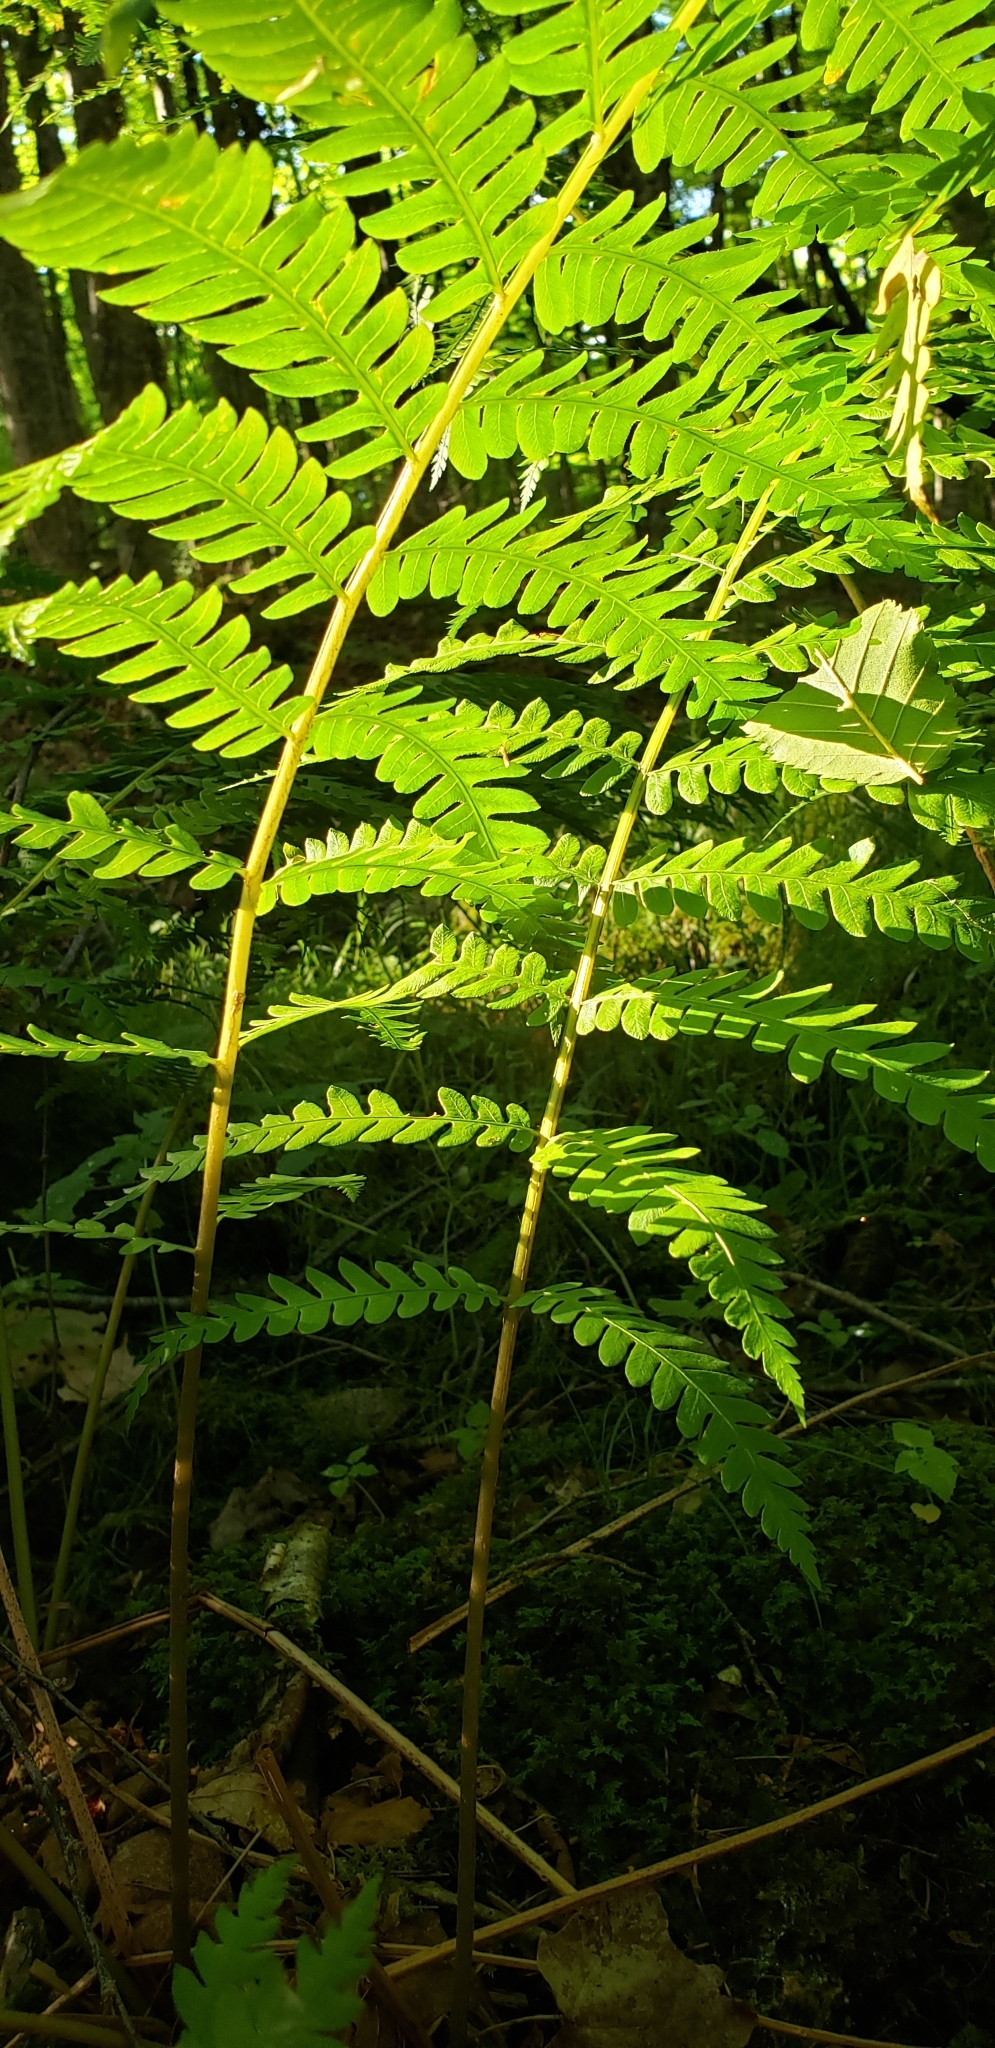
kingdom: Plantae
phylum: Tracheophyta
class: Polypodiopsida
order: Osmundales
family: Osmundaceae
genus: Osmundastrum
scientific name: Osmundastrum cinnamomeum
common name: Cinnamon fern
